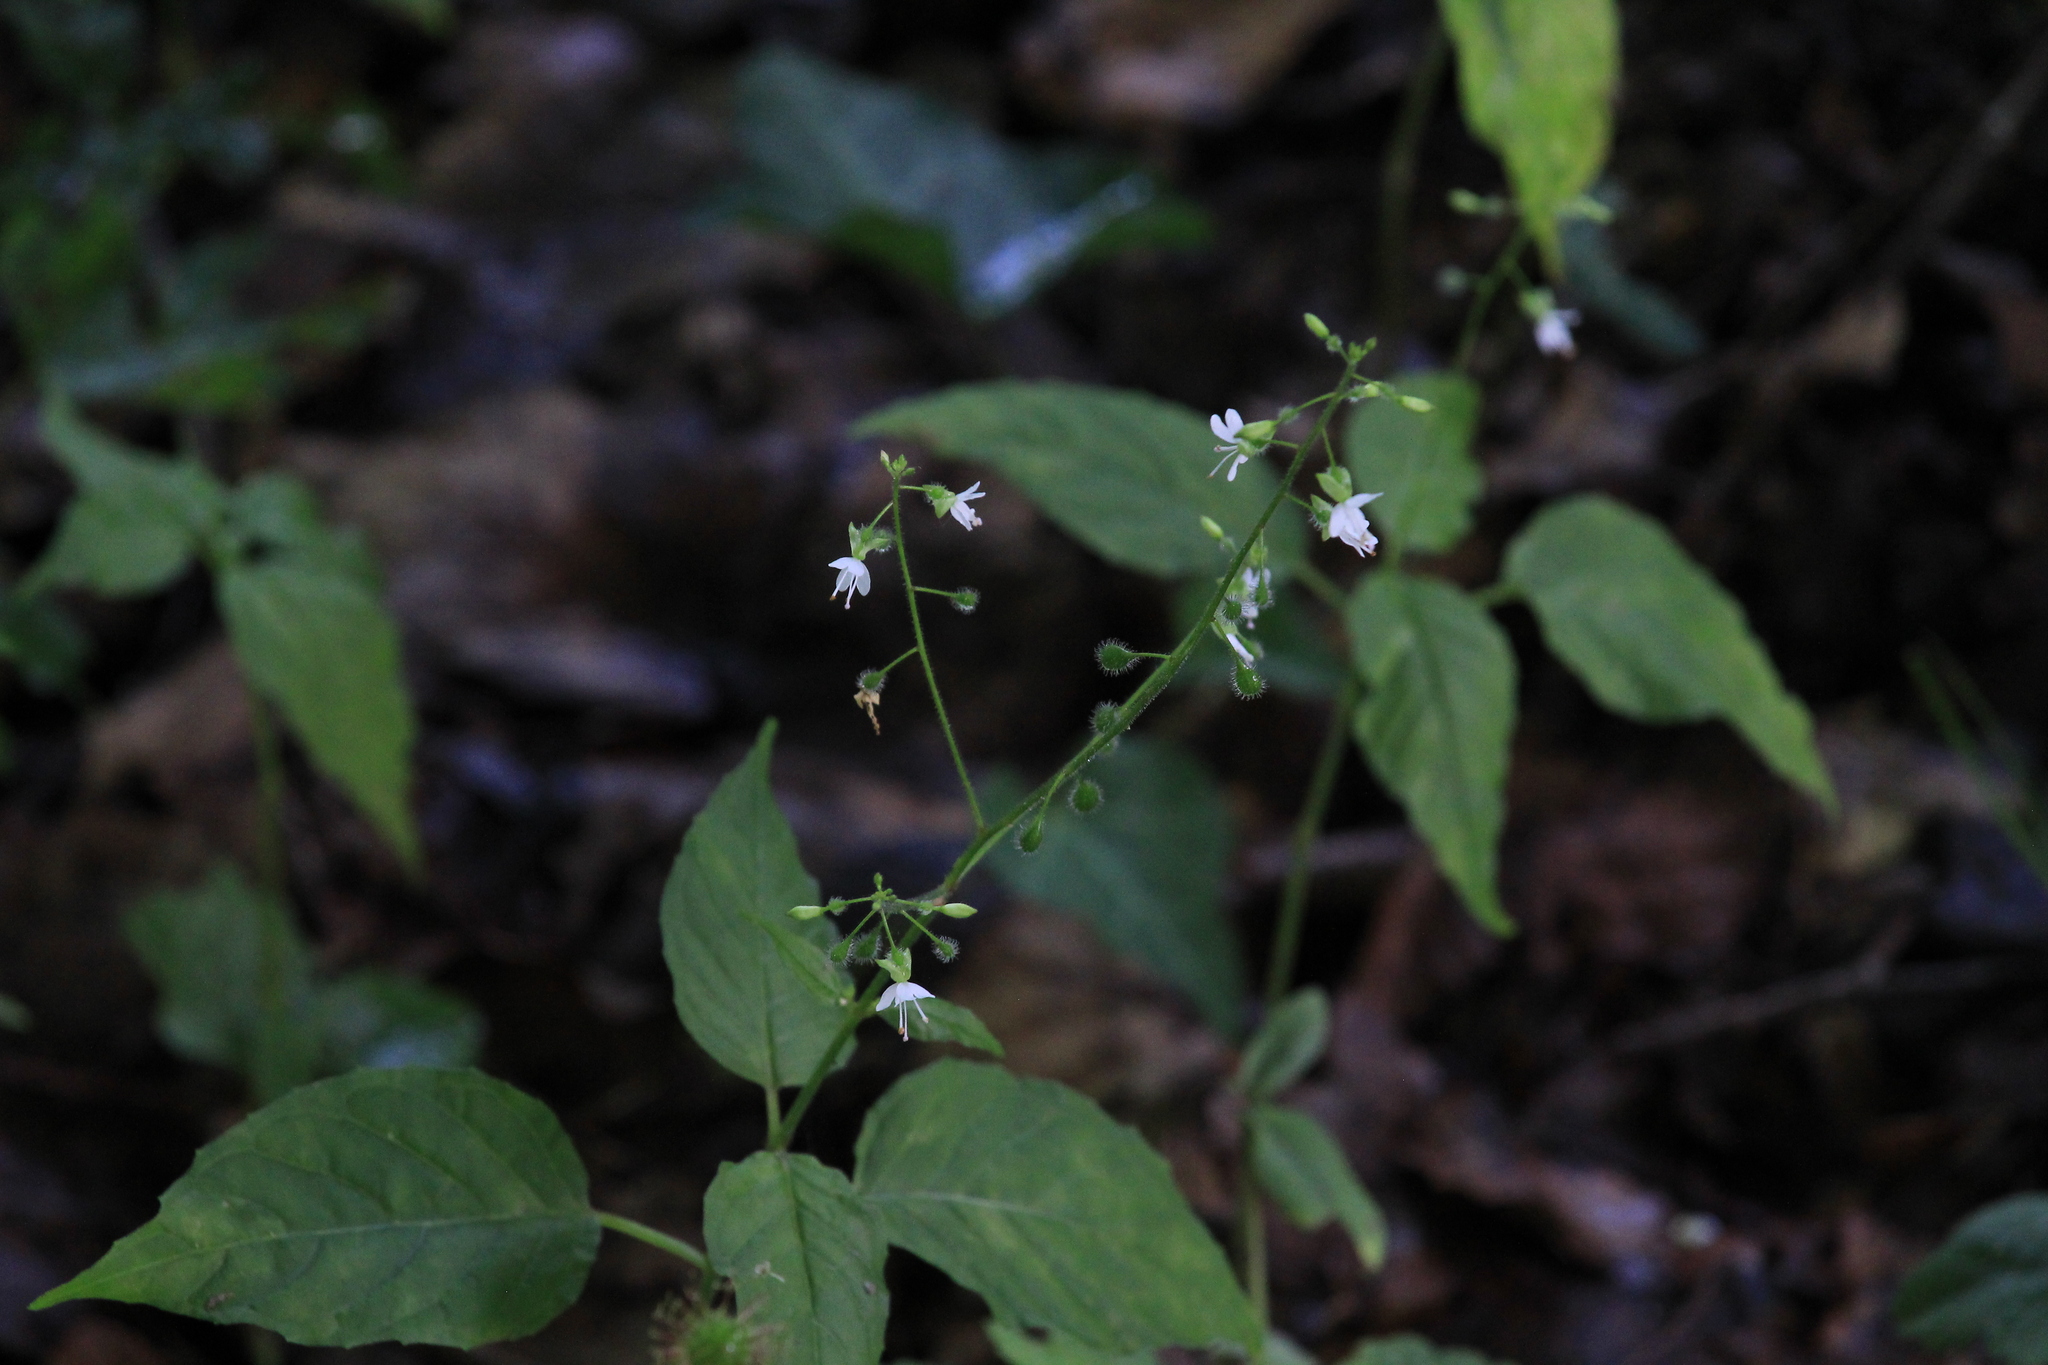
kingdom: Plantae
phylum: Tracheophyta
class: Magnoliopsida
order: Myrtales
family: Onagraceae
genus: Circaea
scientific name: Circaea lutetiana
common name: Enchanter's-nightshade
